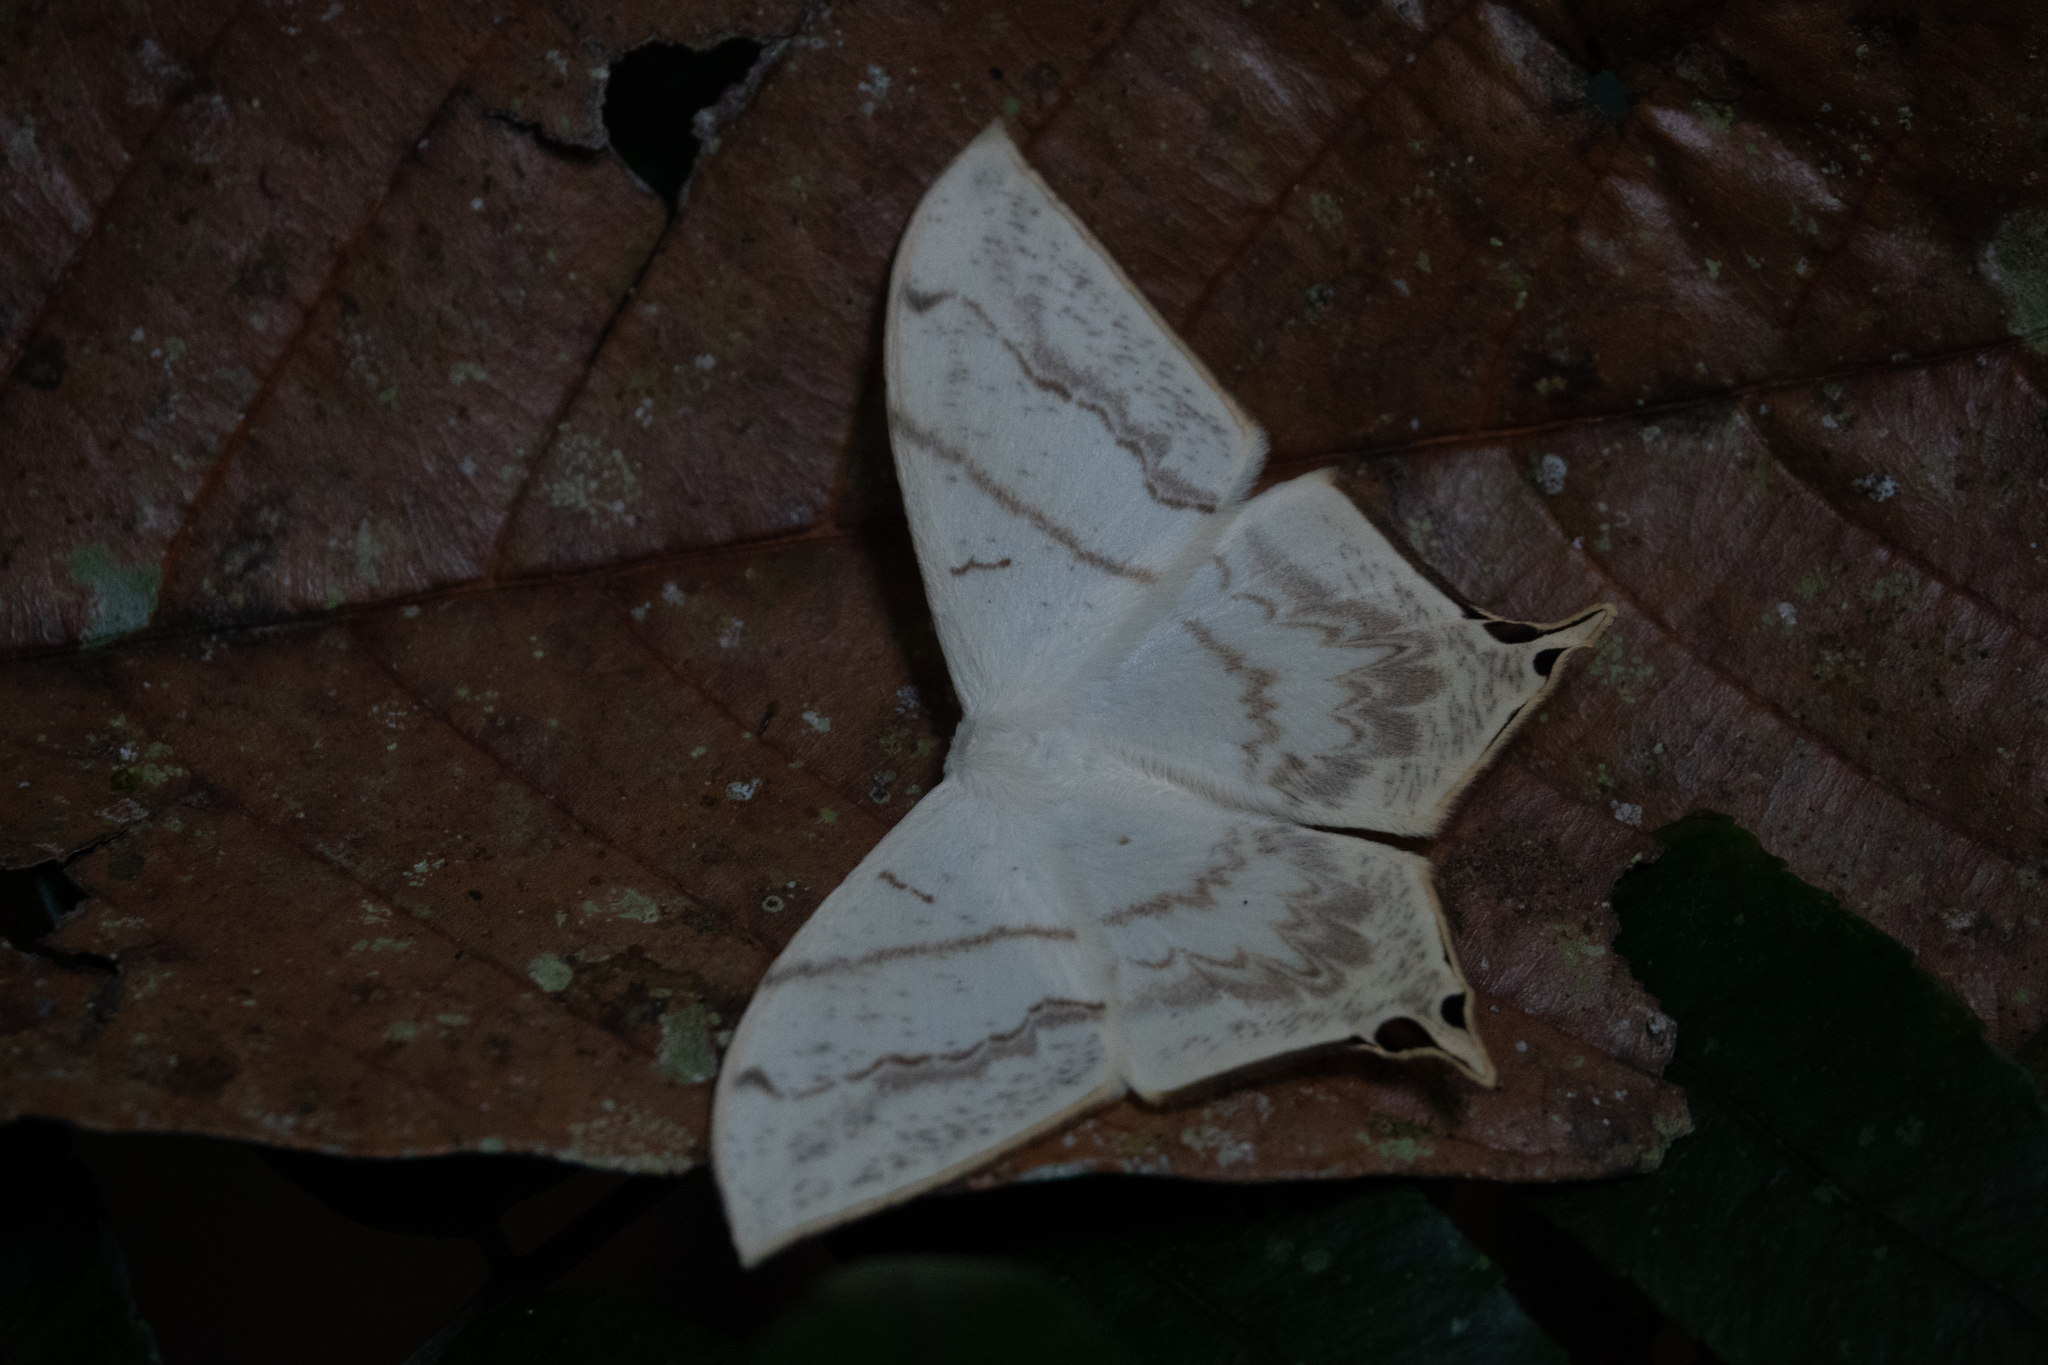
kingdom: Animalia
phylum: Arthropoda
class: Insecta
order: Lepidoptera
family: Saturniidae
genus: Therinia
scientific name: Therinia lactucina
